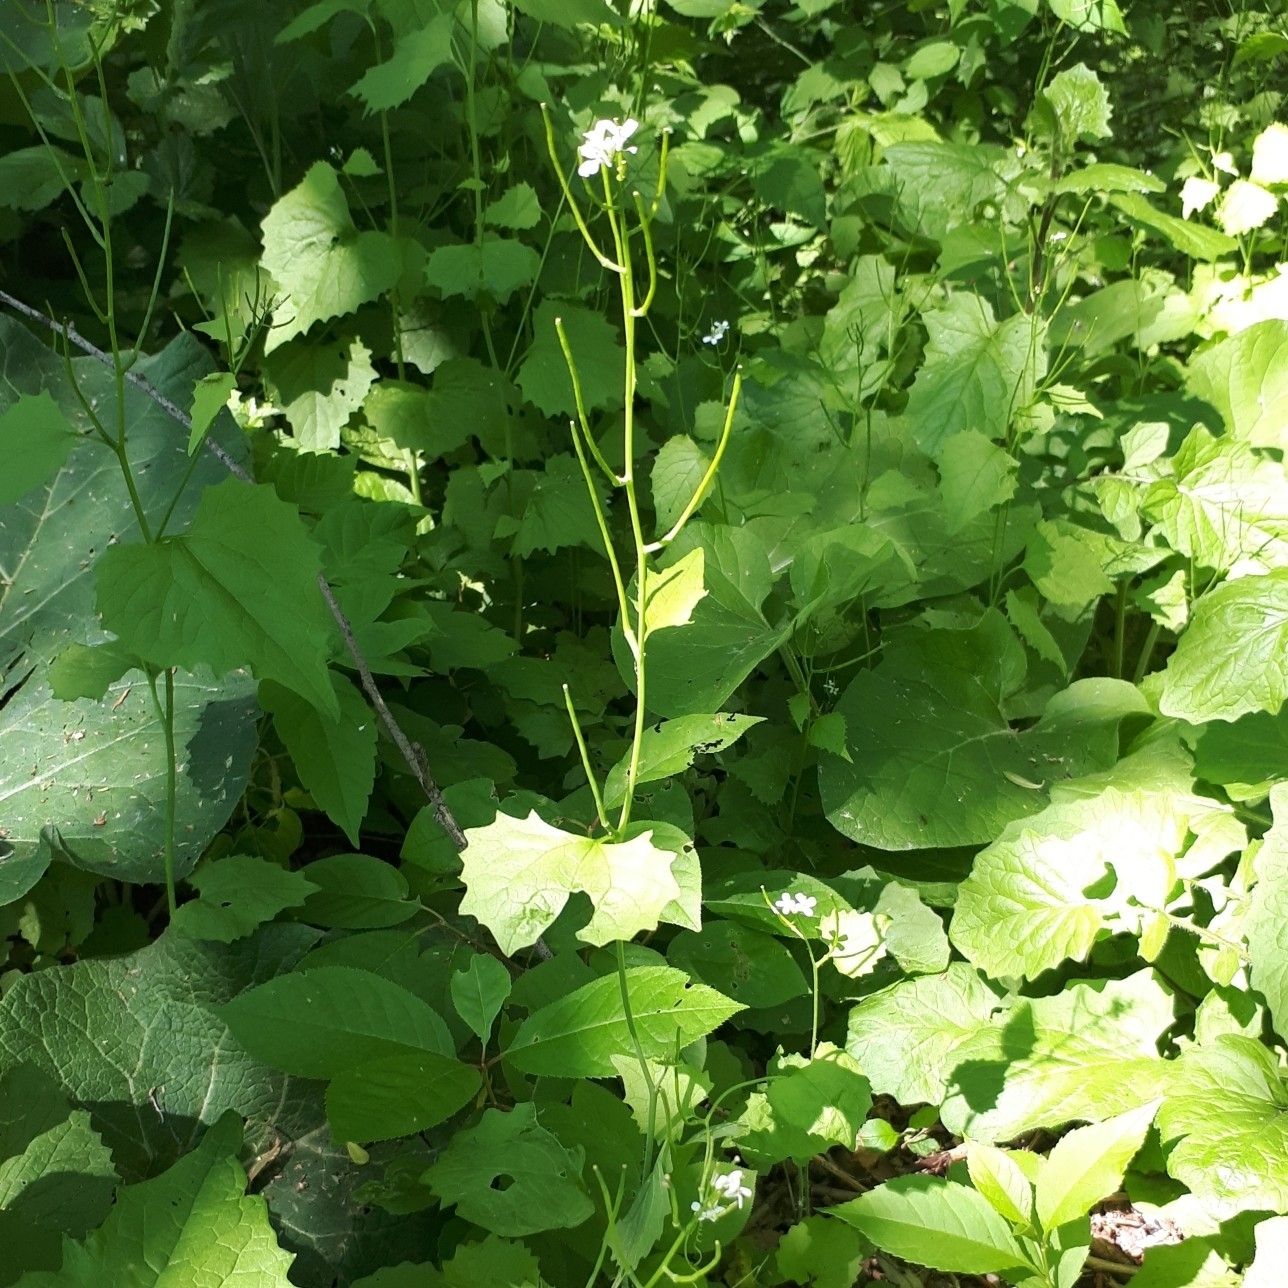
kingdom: Plantae
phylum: Tracheophyta
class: Magnoliopsida
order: Brassicales
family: Brassicaceae
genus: Alliaria
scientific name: Alliaria petiolata
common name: Garlic mustard
